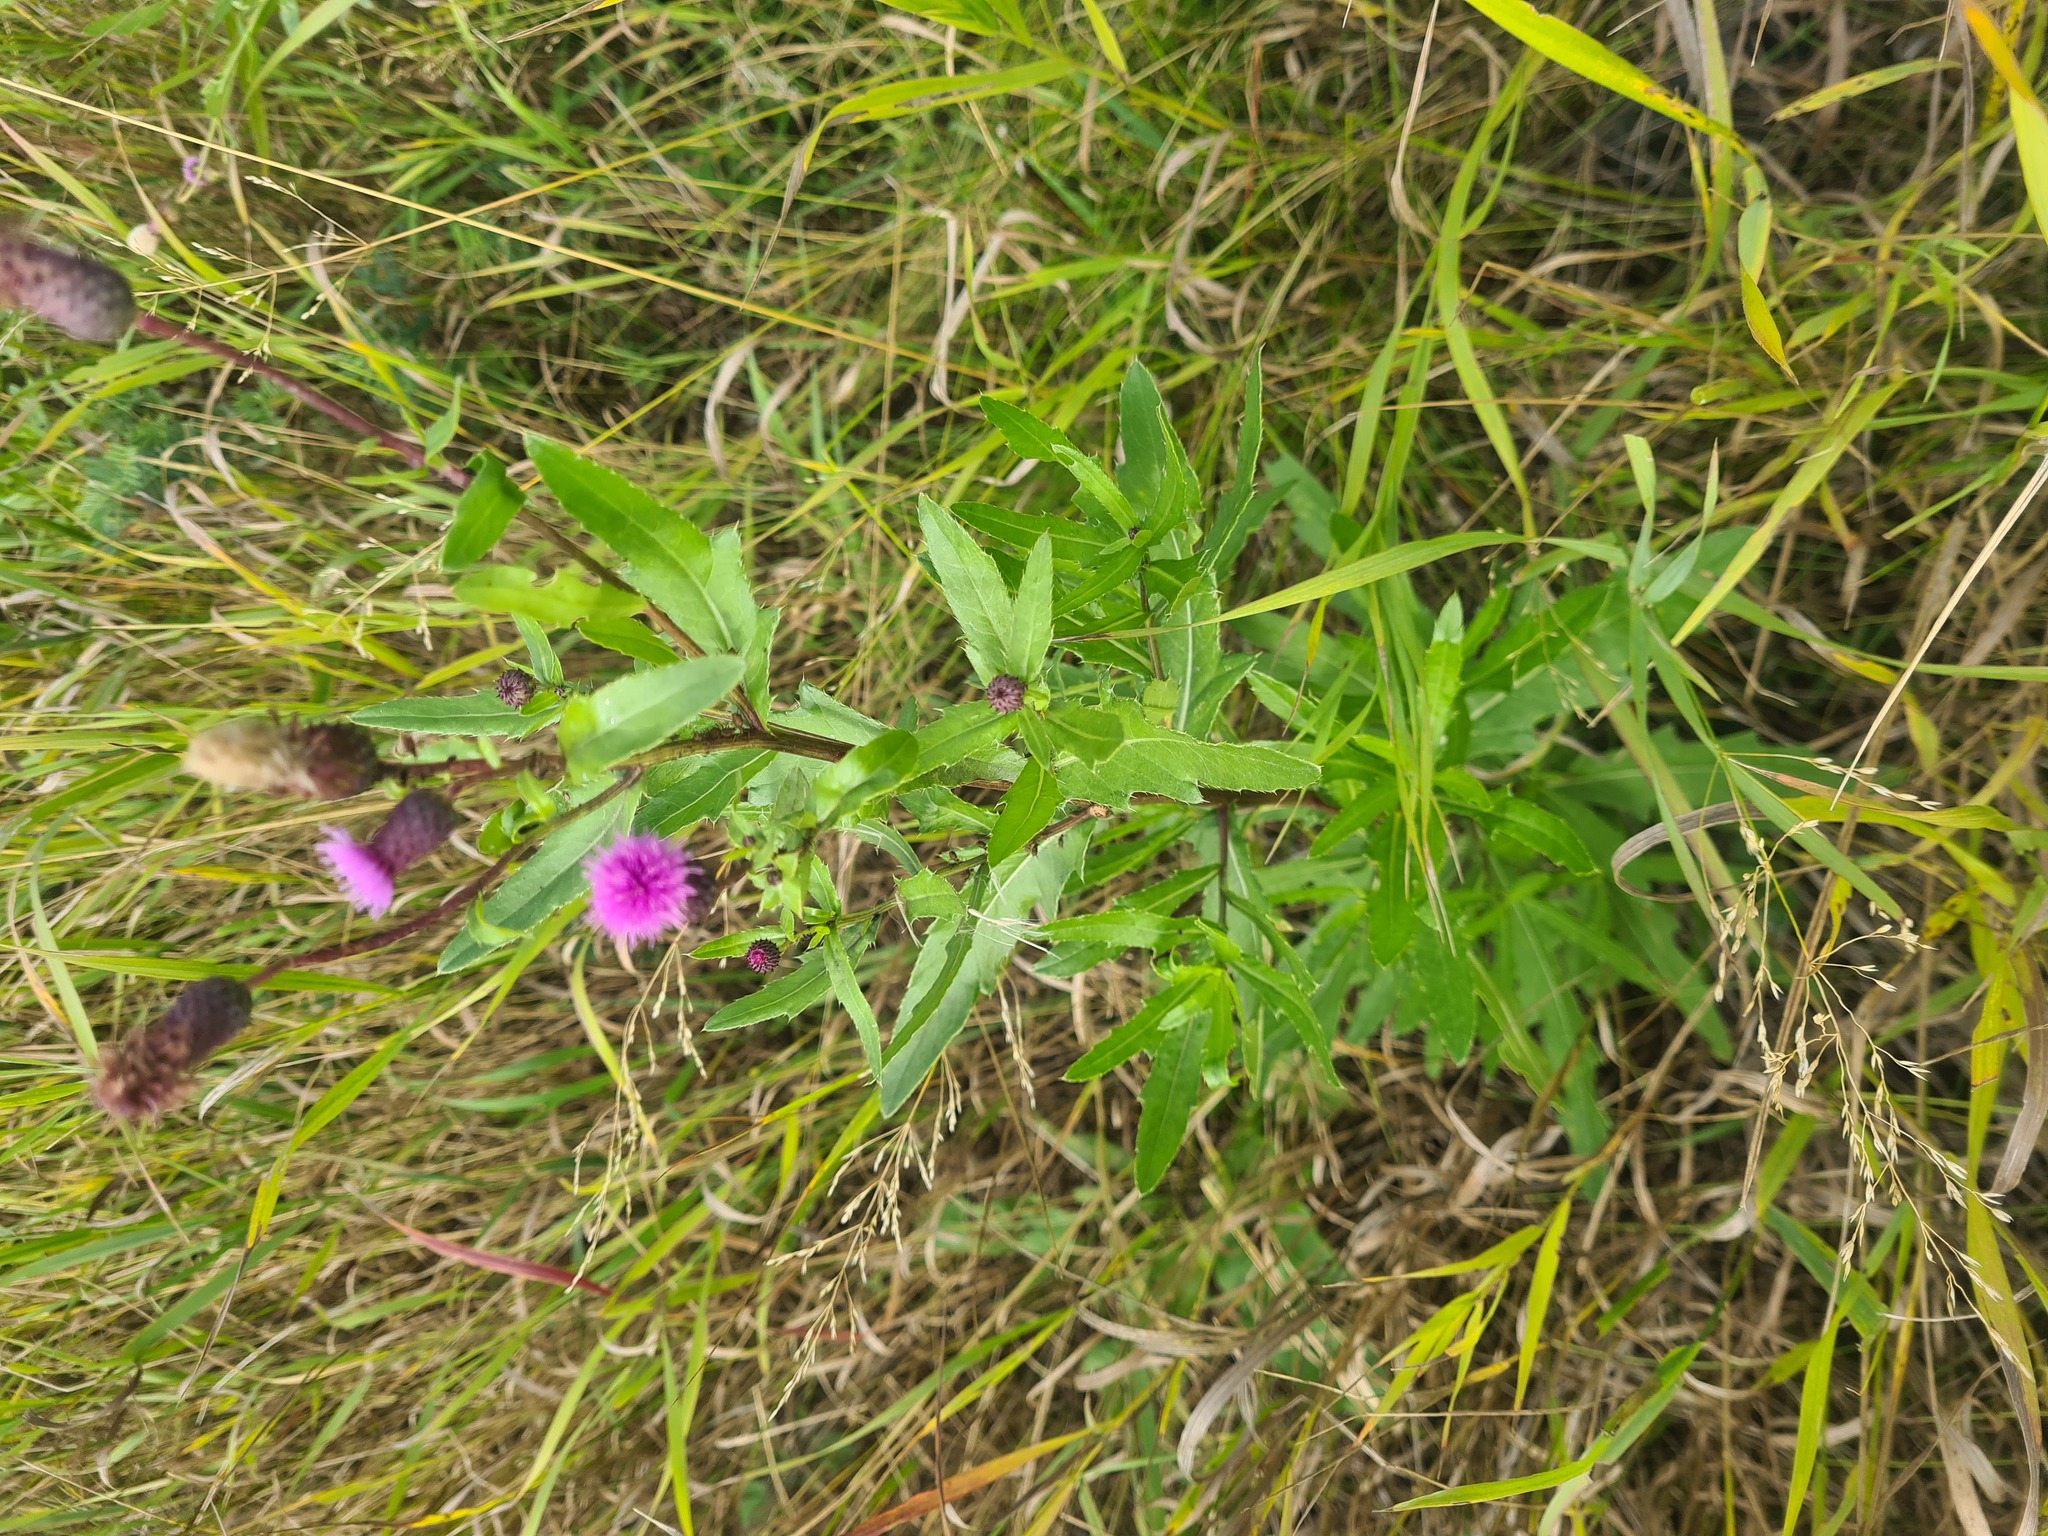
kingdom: Plantae
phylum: Tracheophyta
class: Magnoliopsida
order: Asterales
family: Asteraceae
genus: Cirsium
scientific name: Cirsium arvense
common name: Creeping thistle
